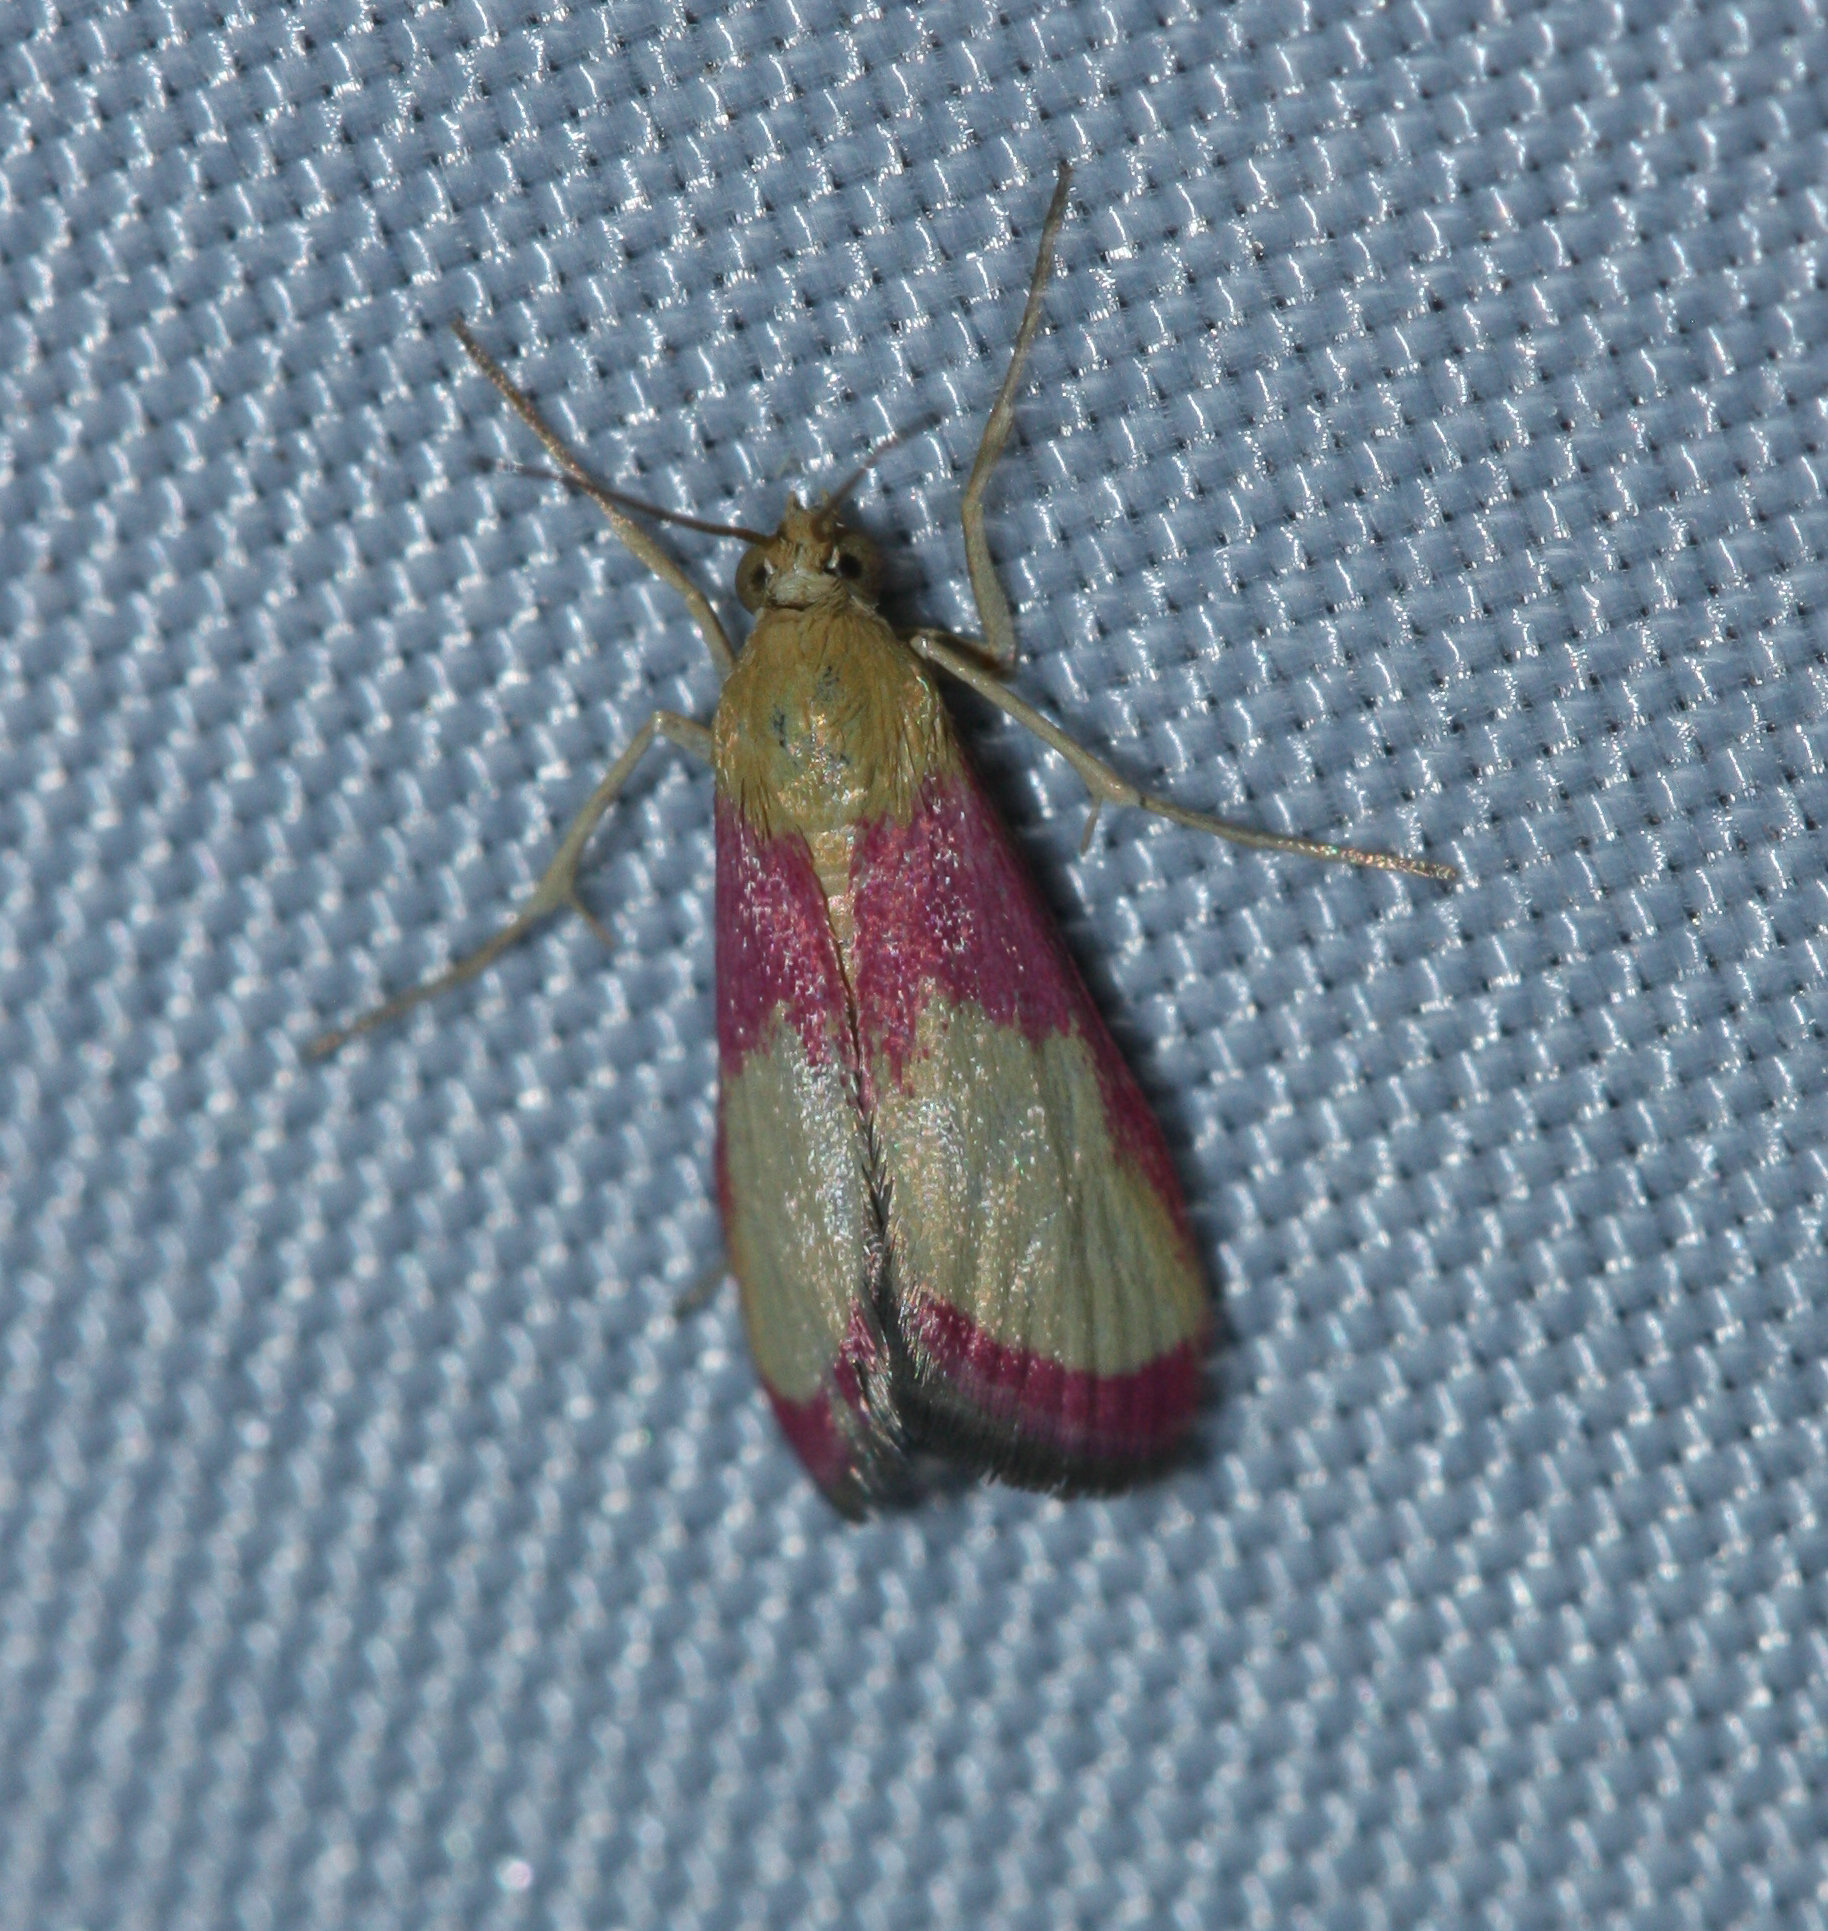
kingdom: Animalia
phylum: Arthropoda
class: Insecta
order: Lepidoptera
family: Crambidae
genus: Mojavia
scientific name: Mojavia achemonalis
